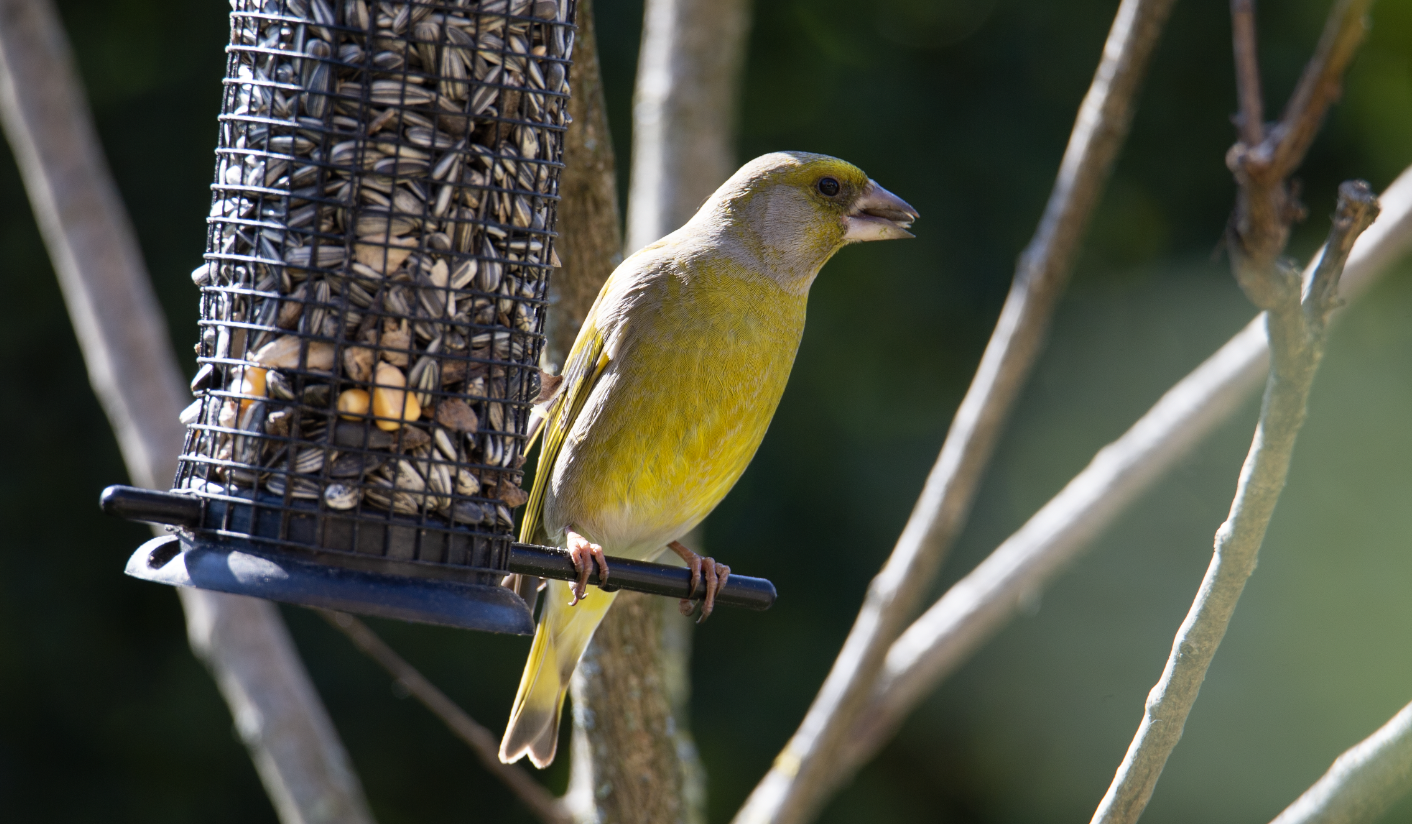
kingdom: Plantae
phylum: Tracheophyta
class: Liliopsida
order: Poales
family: Poaceae
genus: Chloris
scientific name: Chloris chloris
